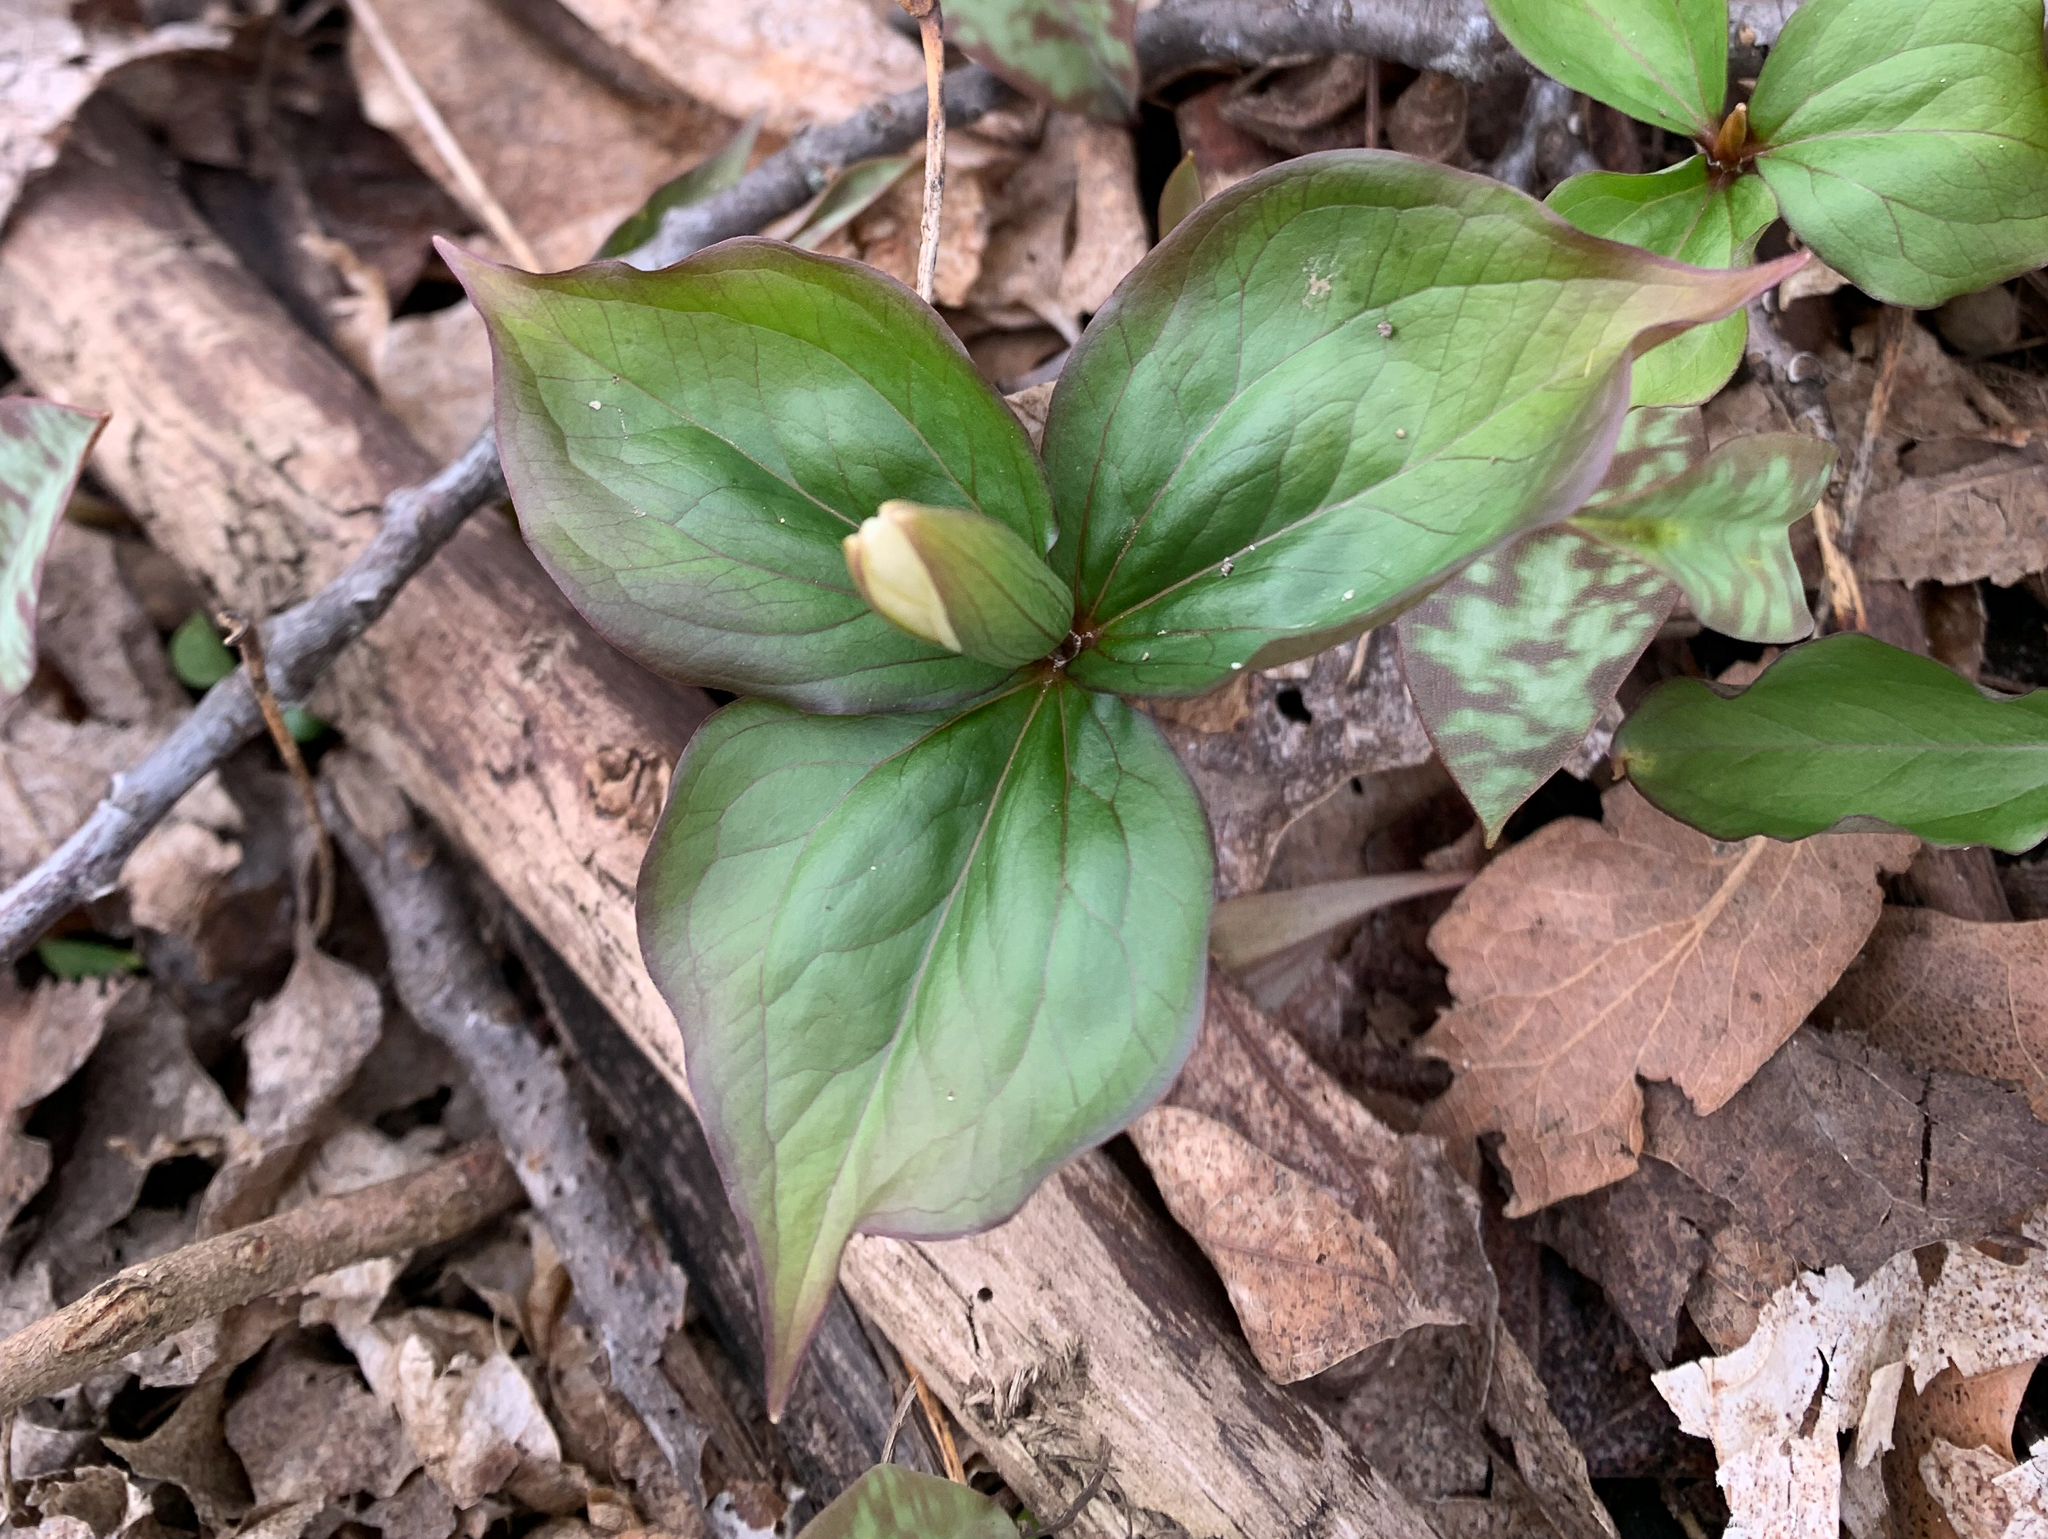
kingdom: Plantae
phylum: Tracheophyta
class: Liliopsida
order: Liliales
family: Melanthiaceae
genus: Trillium
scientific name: Trillium grandiflorum
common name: Great white trillium
